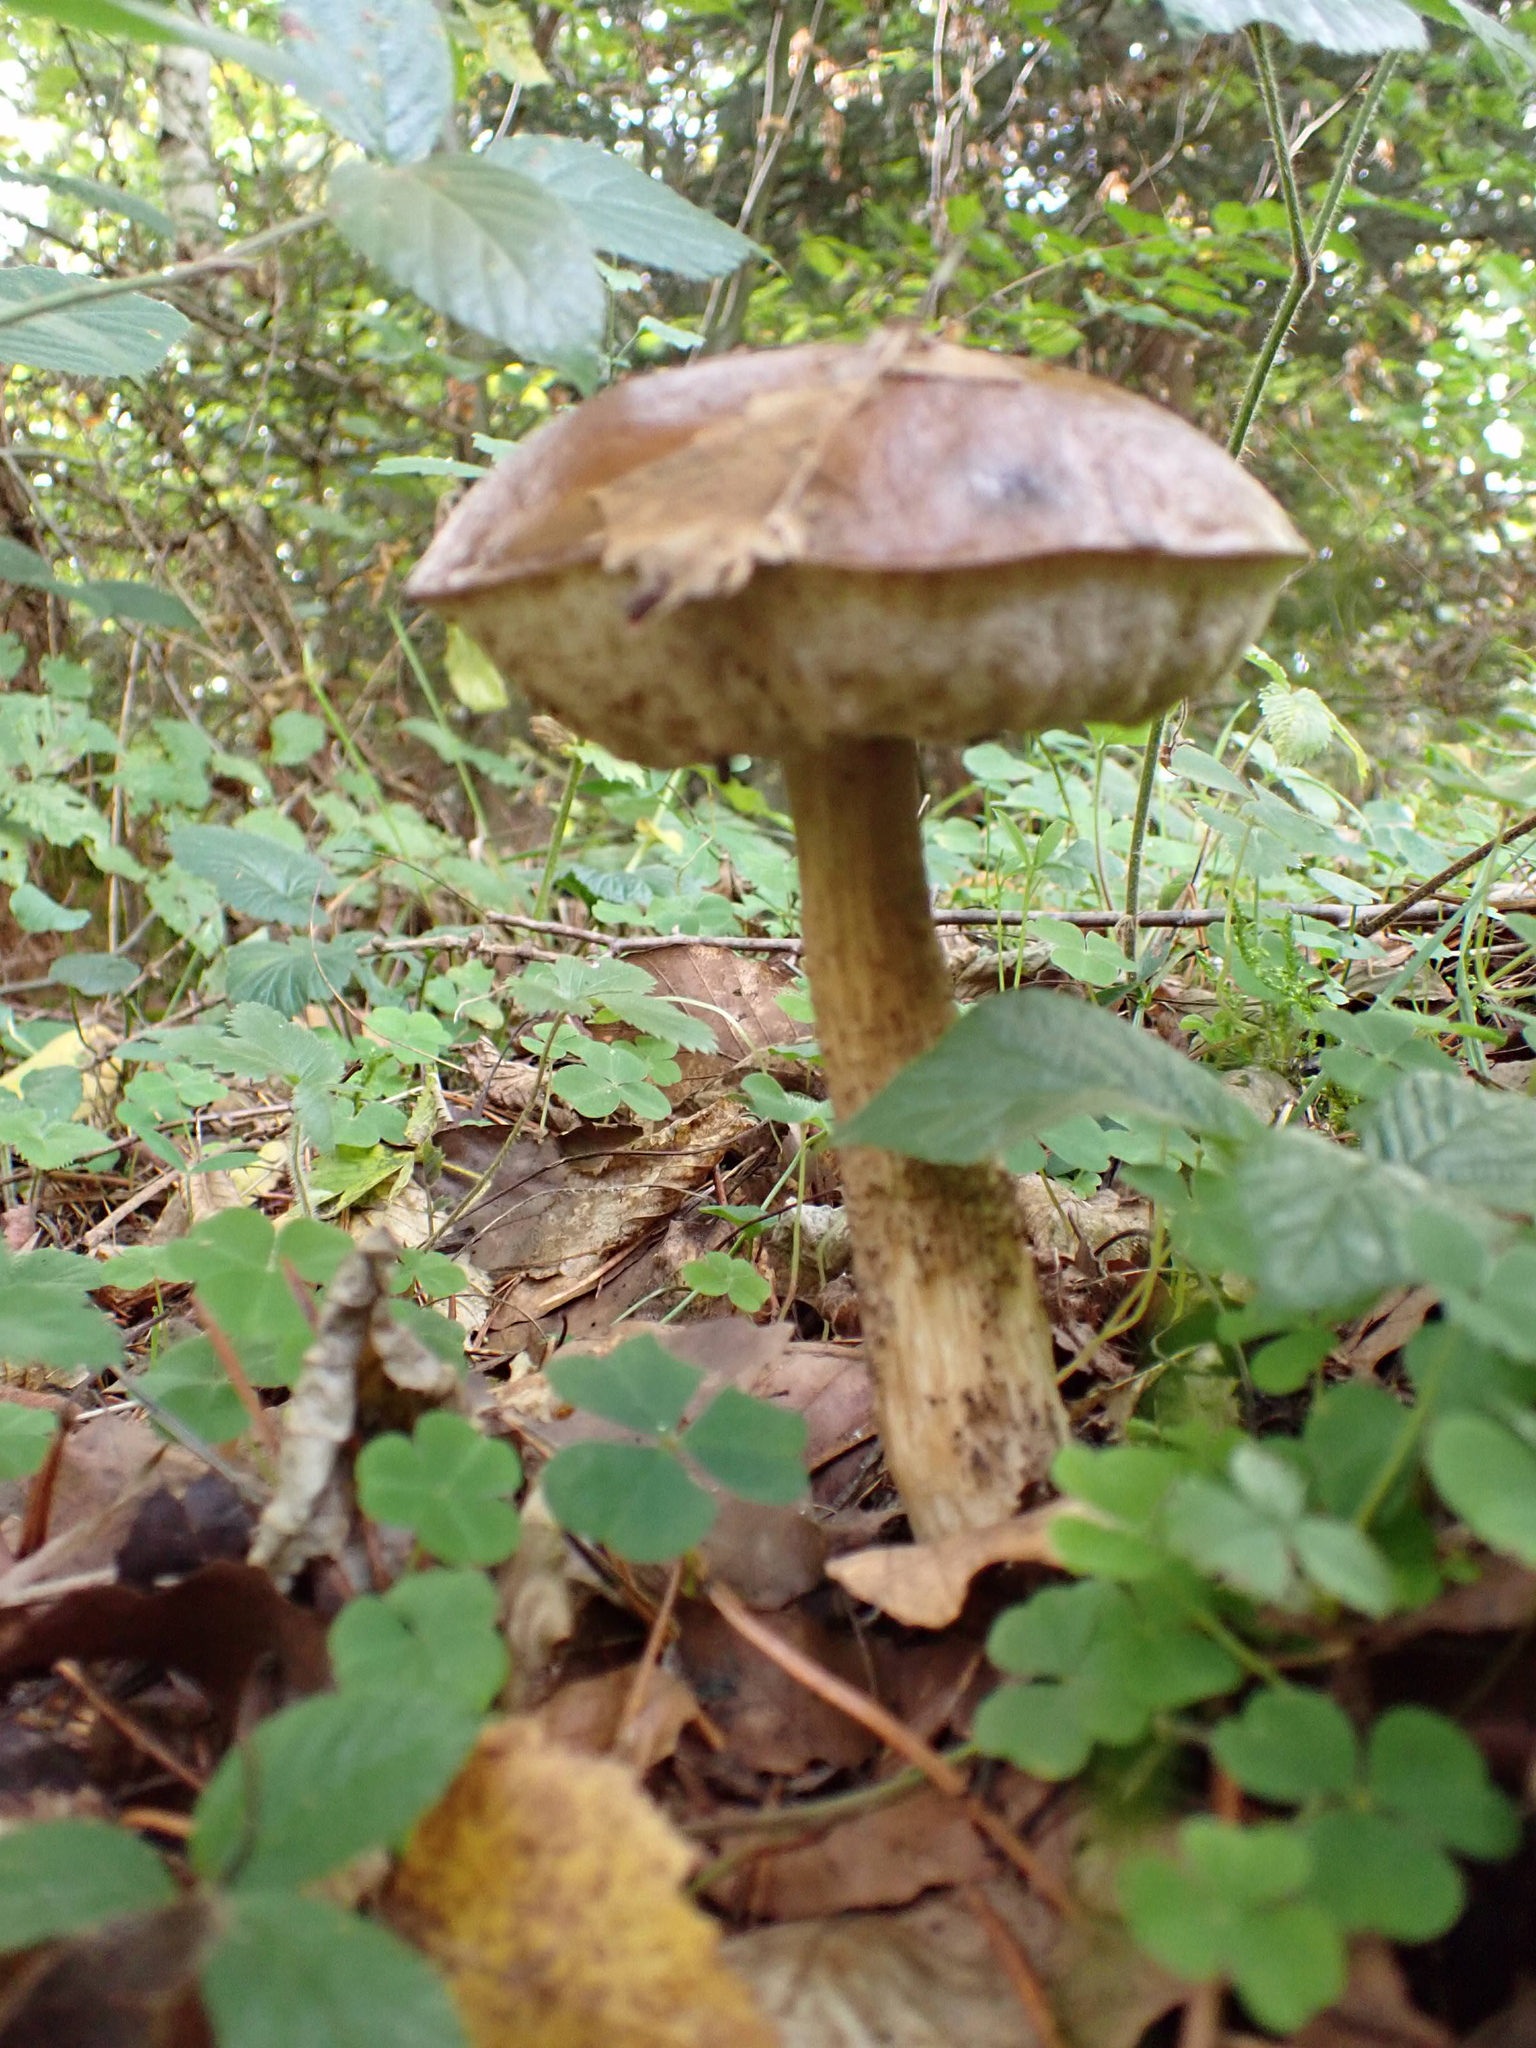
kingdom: Fungi
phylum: Basidiomycota
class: Agaricomycetes
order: Boletales
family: Boletaceae
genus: Leccinum
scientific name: Leccinum scabrum
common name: Blushing bolete
